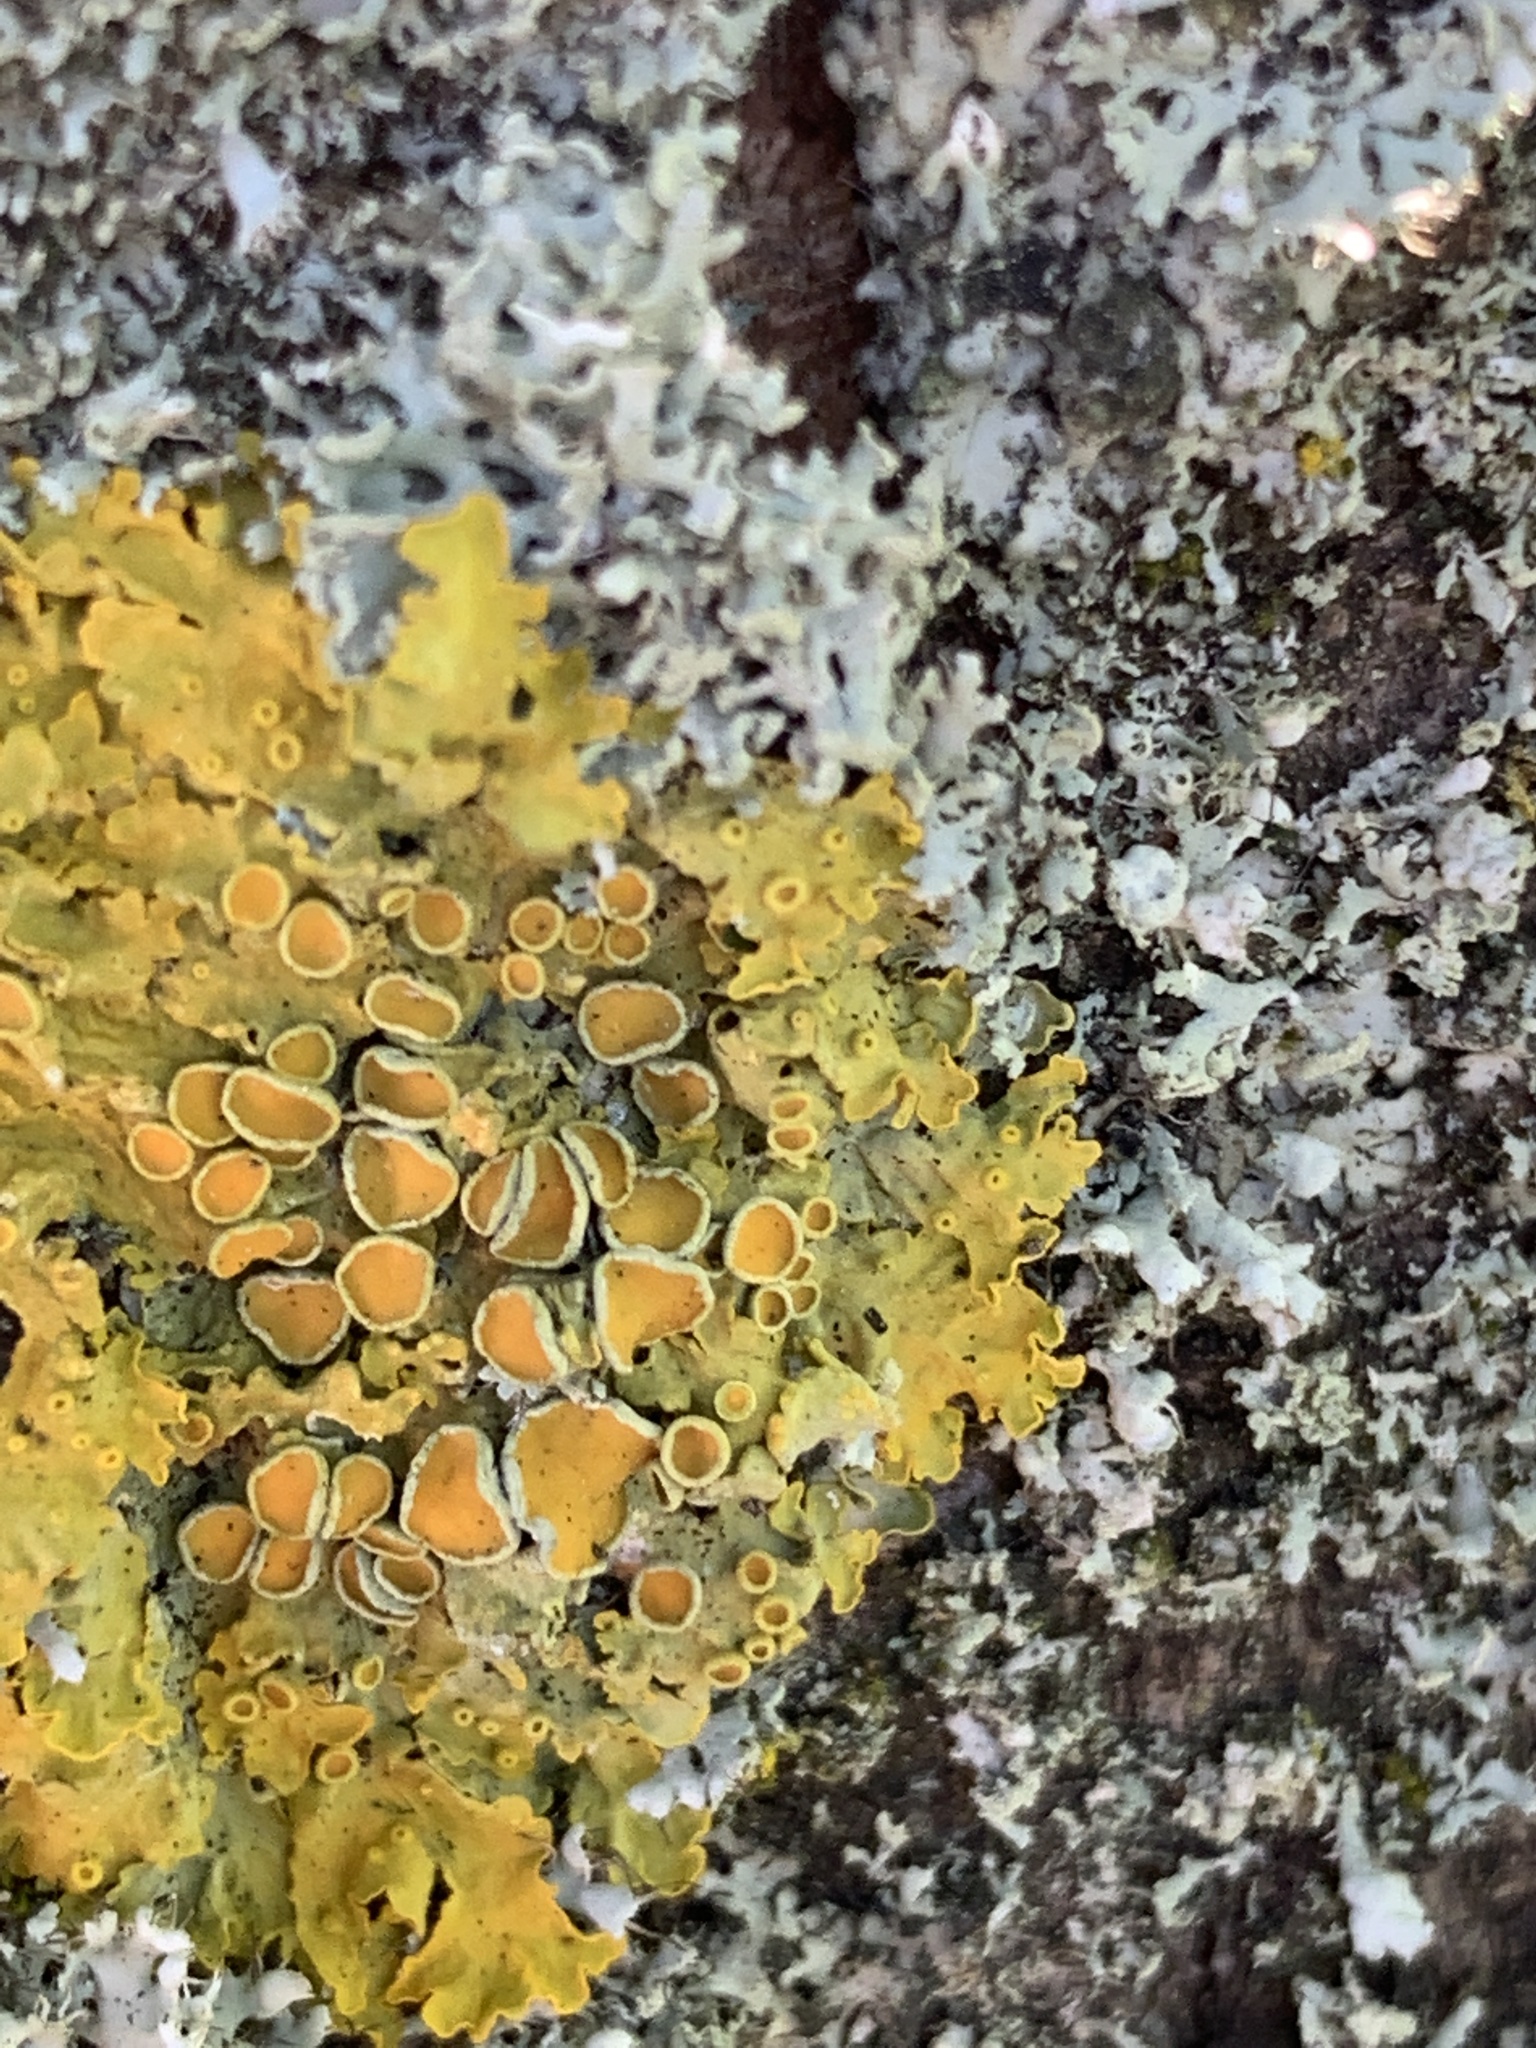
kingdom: Fungi
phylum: Ascomycota
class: Lecanoromycetes
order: Teloschistales
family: Teloschistaceae
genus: Xanthoria
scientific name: Xanthoria parietina
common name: Common orange lichen
